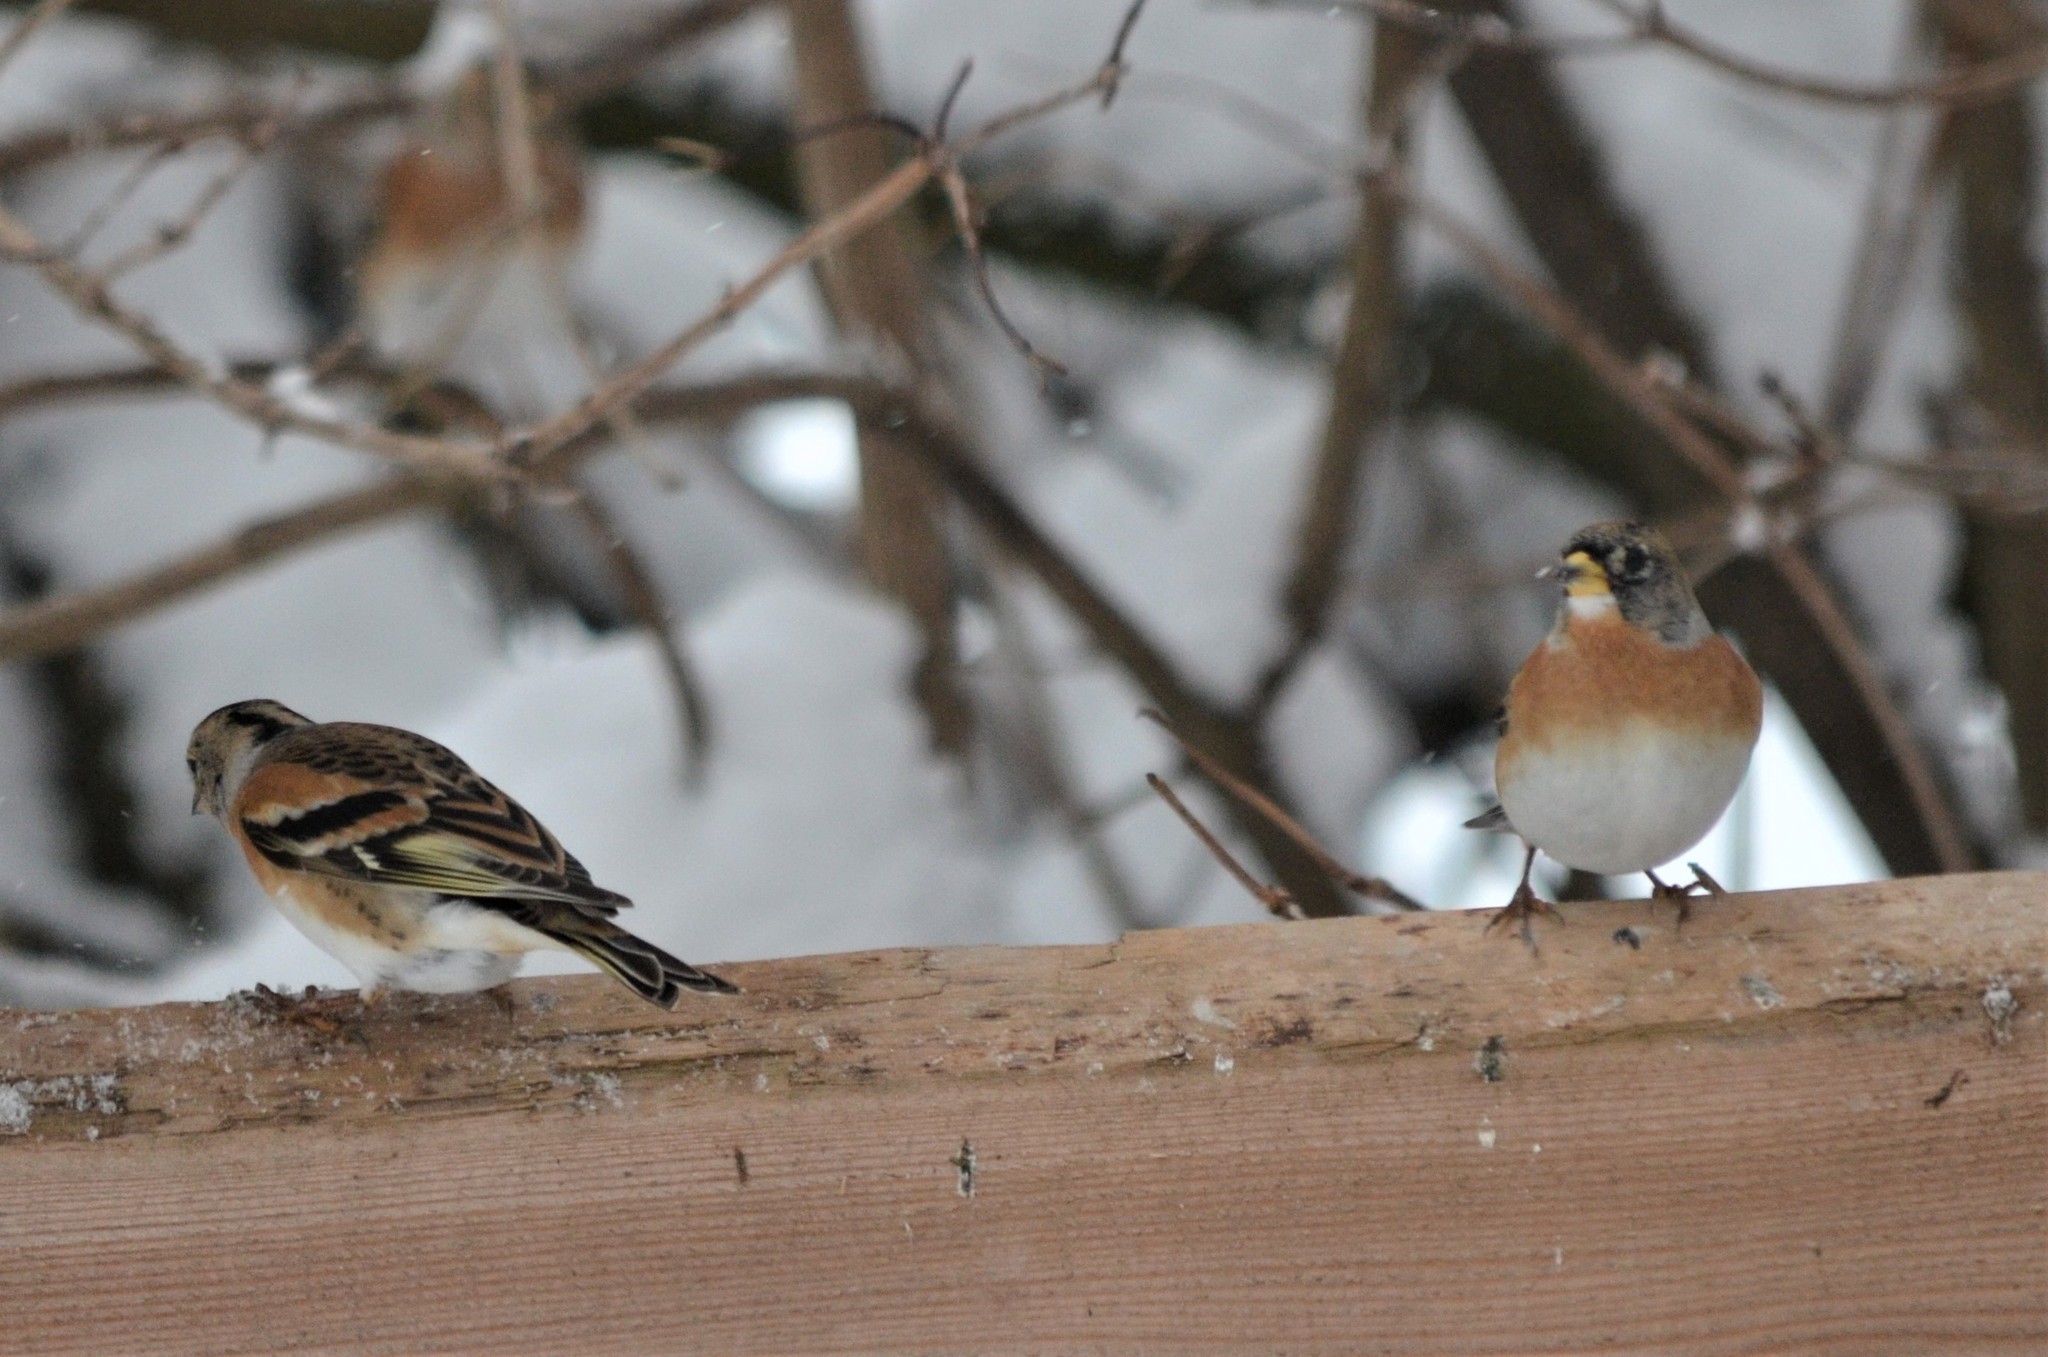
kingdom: Animalia
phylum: Chordata
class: Aves
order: Passeriformes
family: Fringillidae
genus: Fringilla
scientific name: Fringilla montifringilla
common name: Brambling
